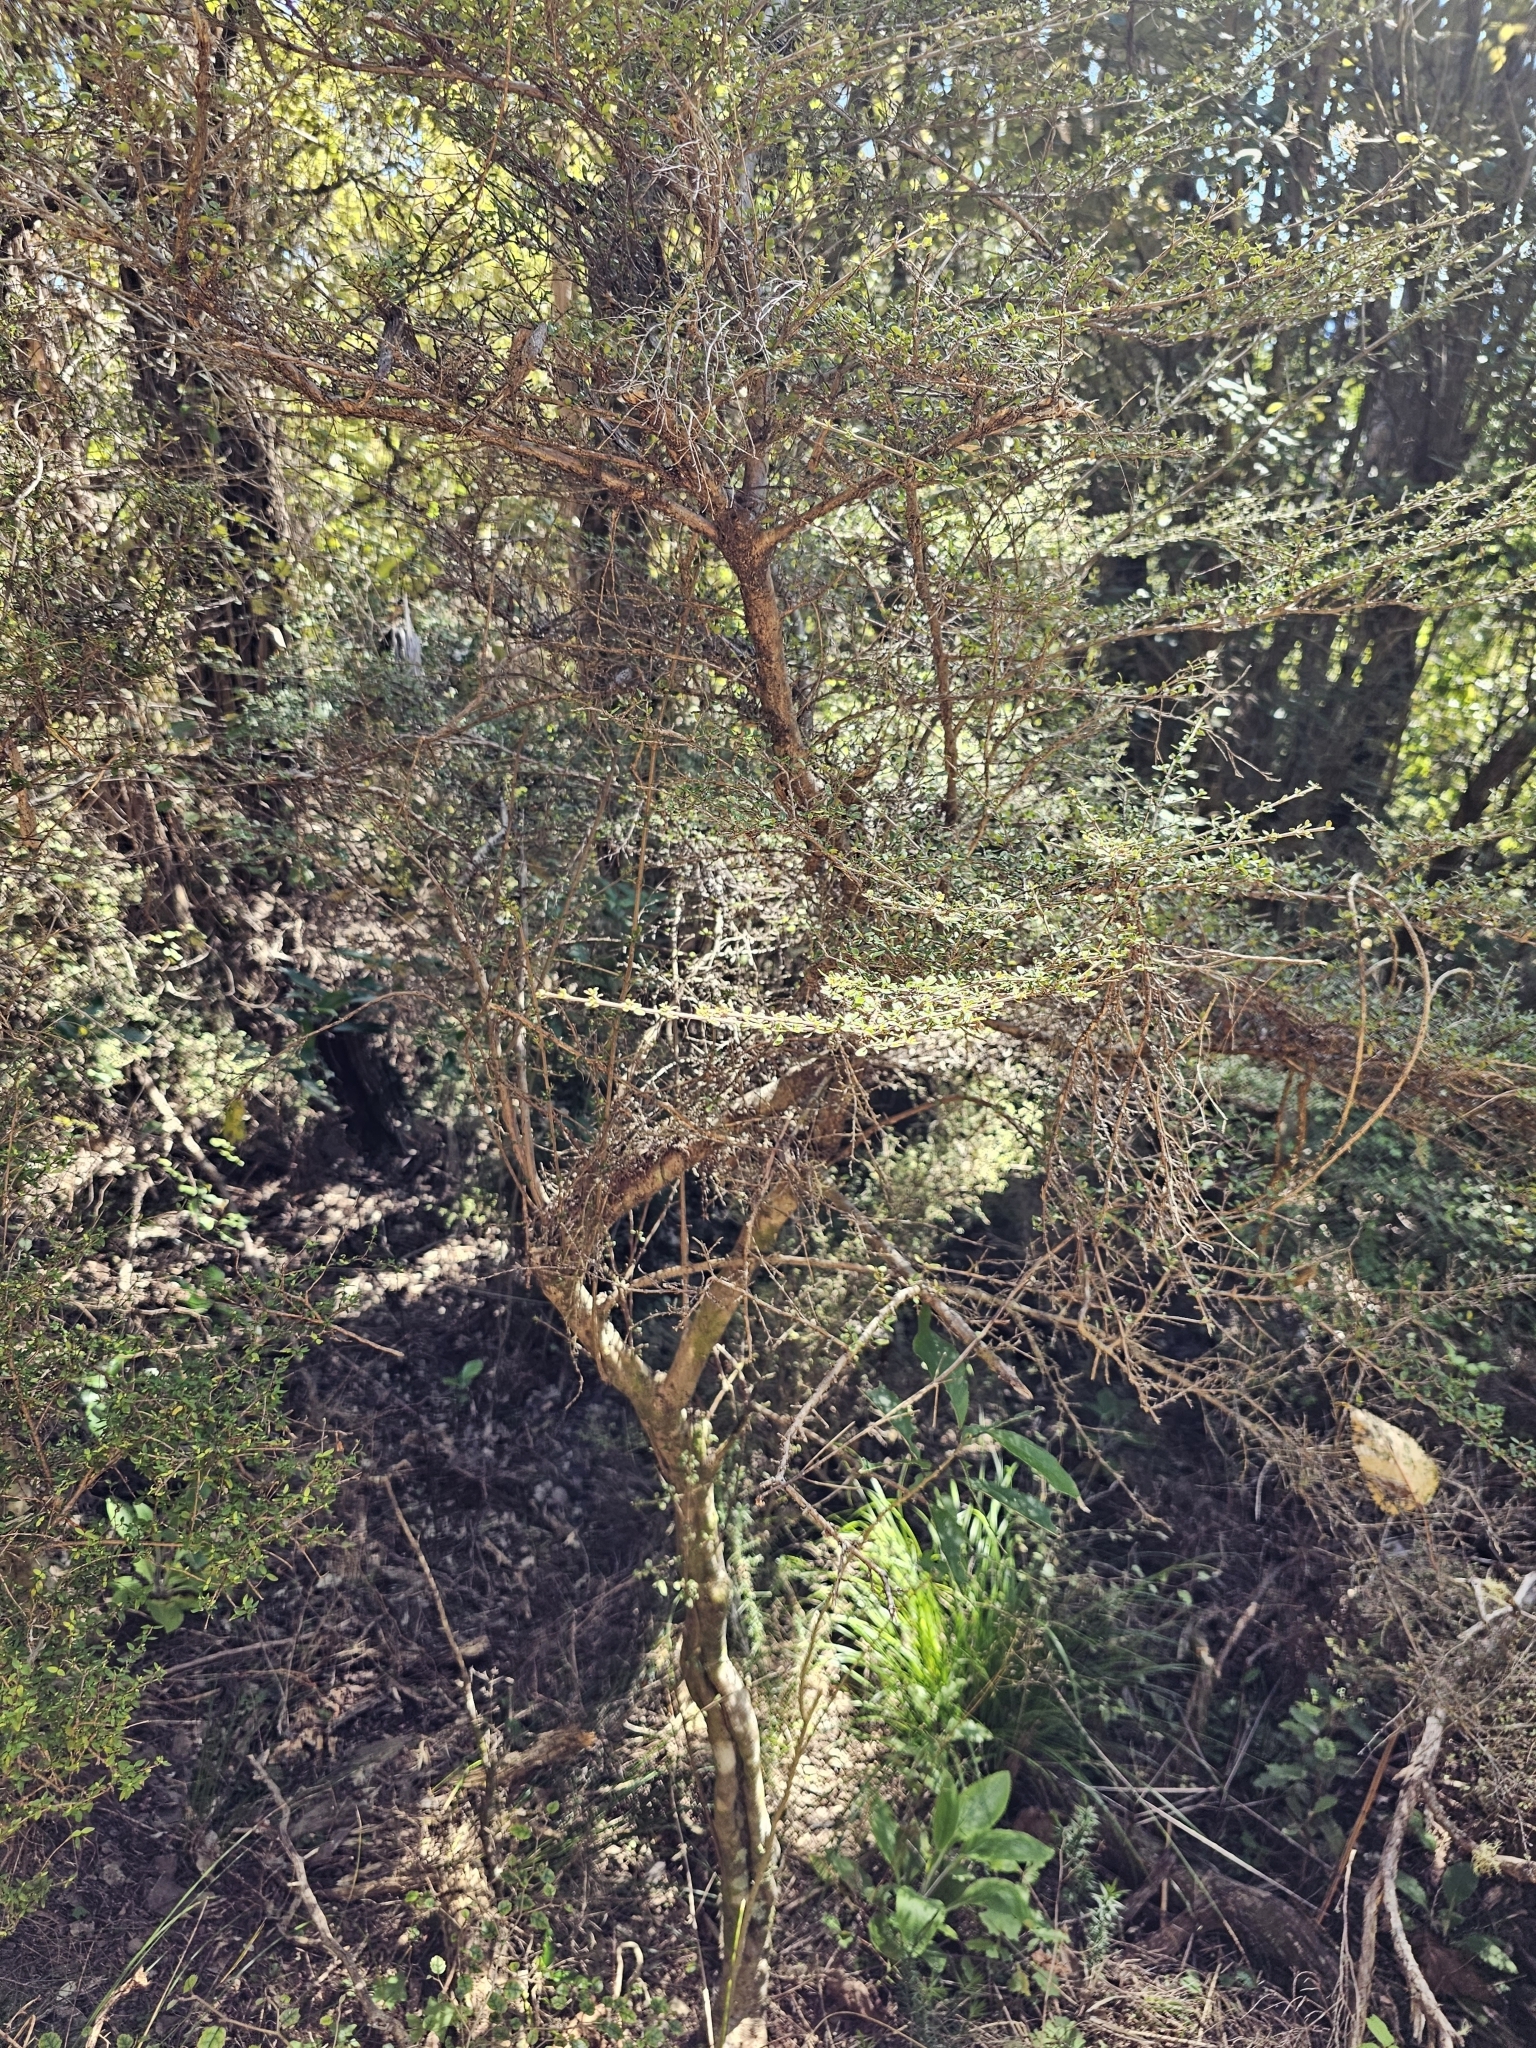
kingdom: Plantae
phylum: Tracheophyta
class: Magnoliopsida
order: Gentianales
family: Rubiaceae
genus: Coprosma
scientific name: Coprosma dumosa
